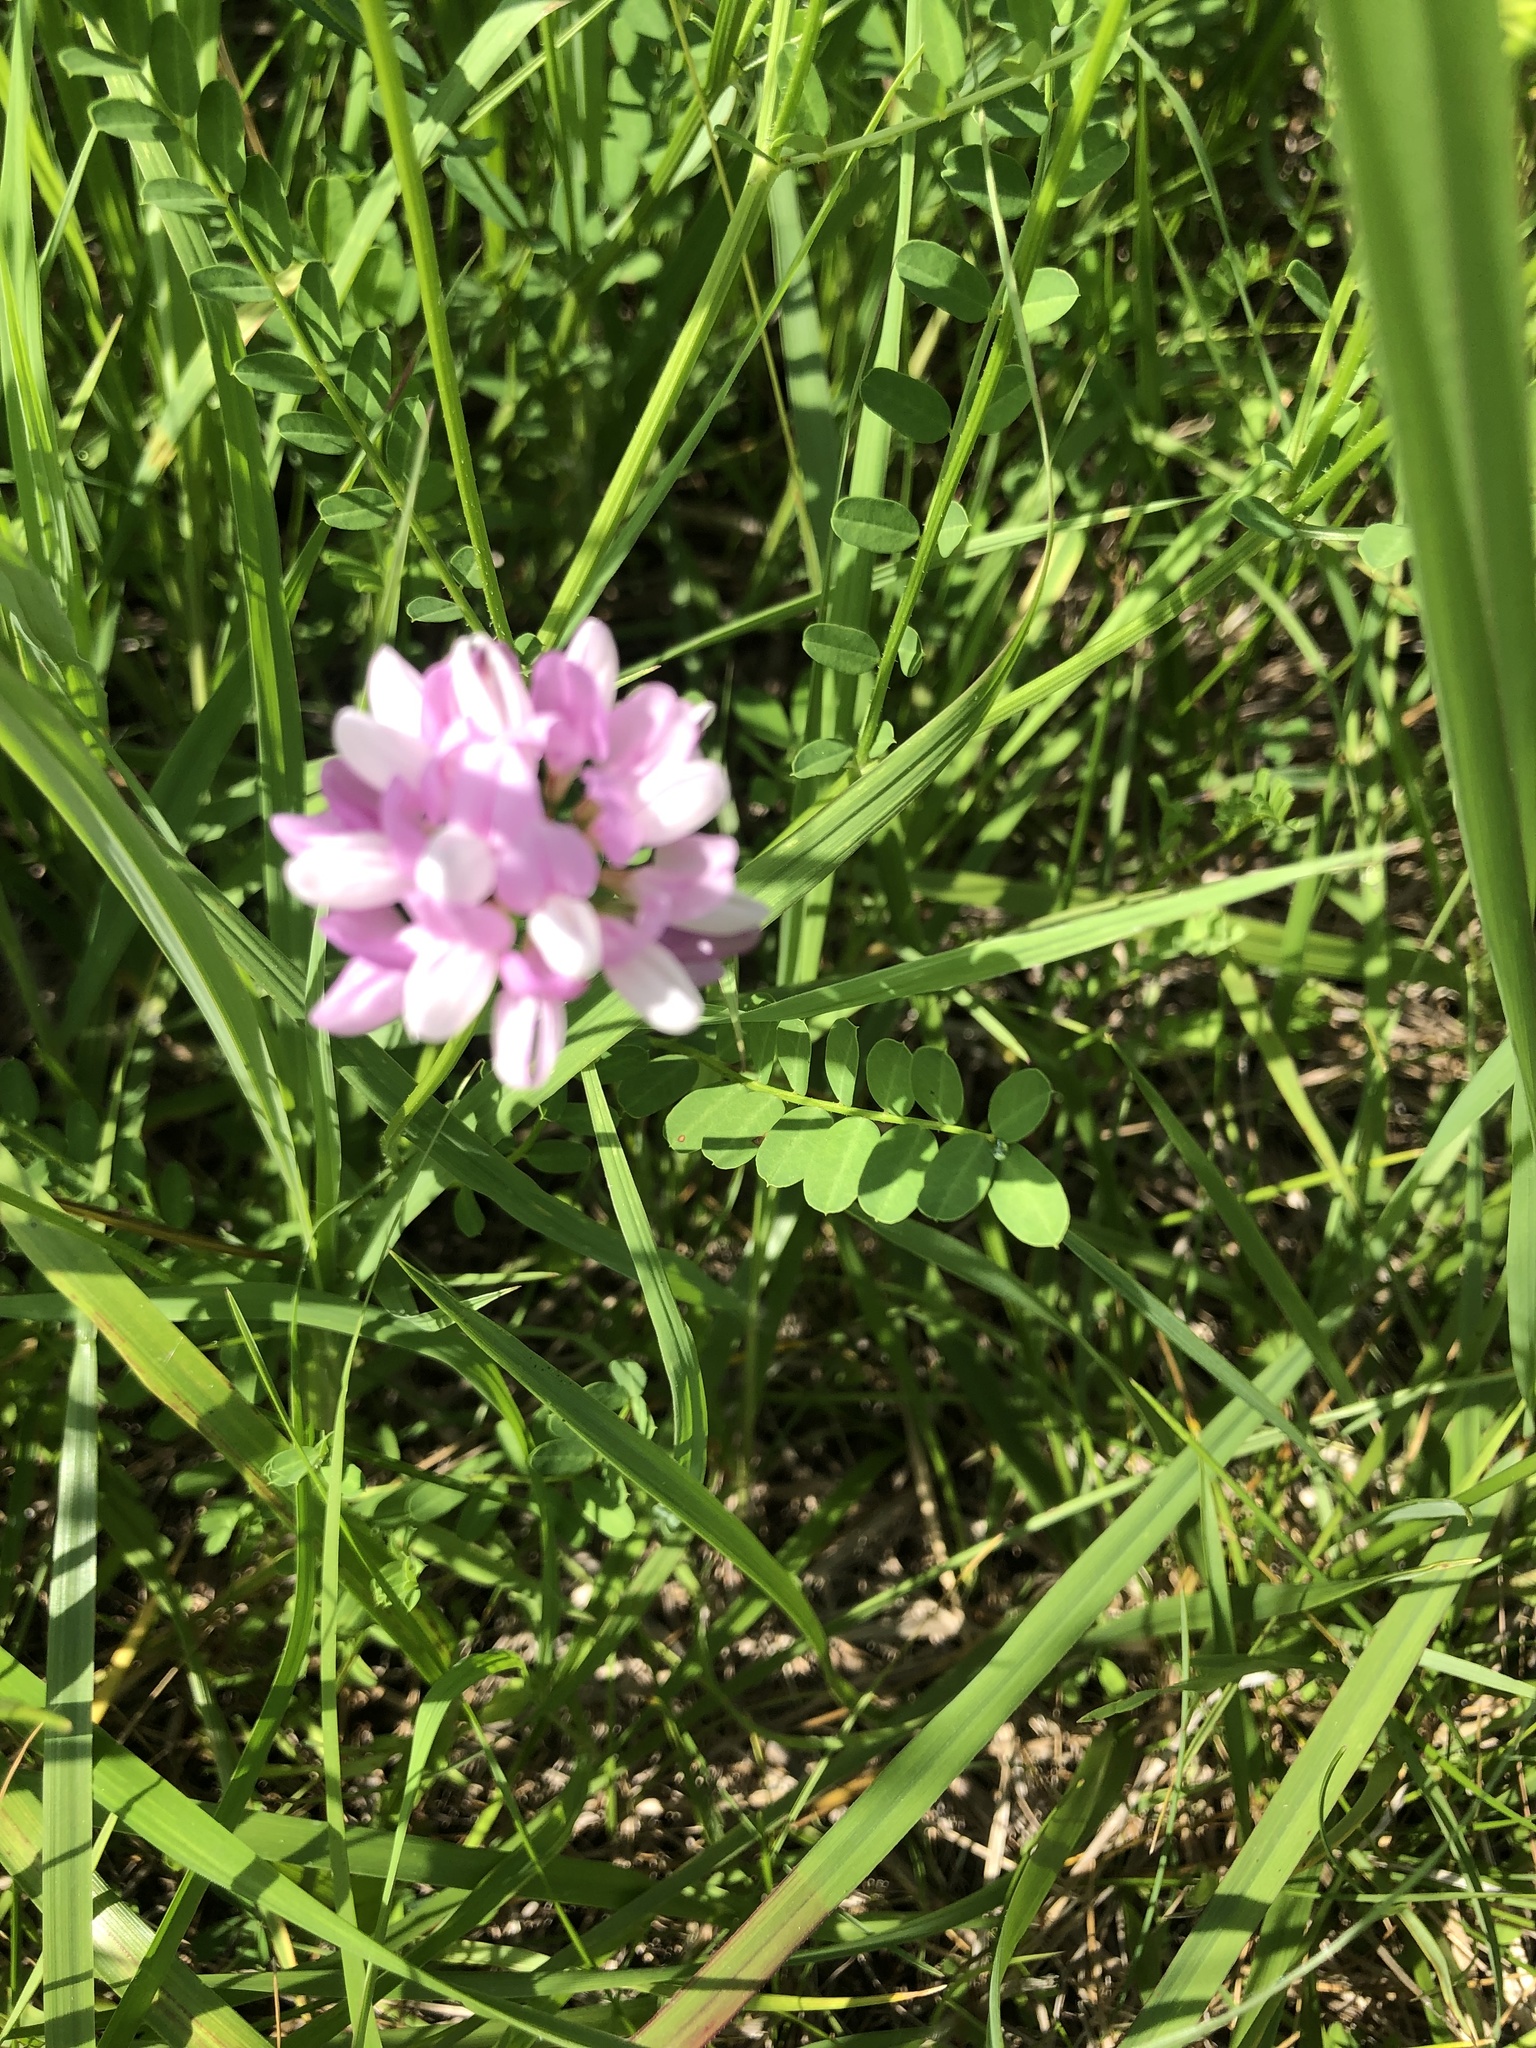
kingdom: Plantae
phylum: Tracheophyta
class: Magnoliopsida
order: Fabales
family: Fabaceae
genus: Coronilla
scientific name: Coronilla varia
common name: Crownvetch
